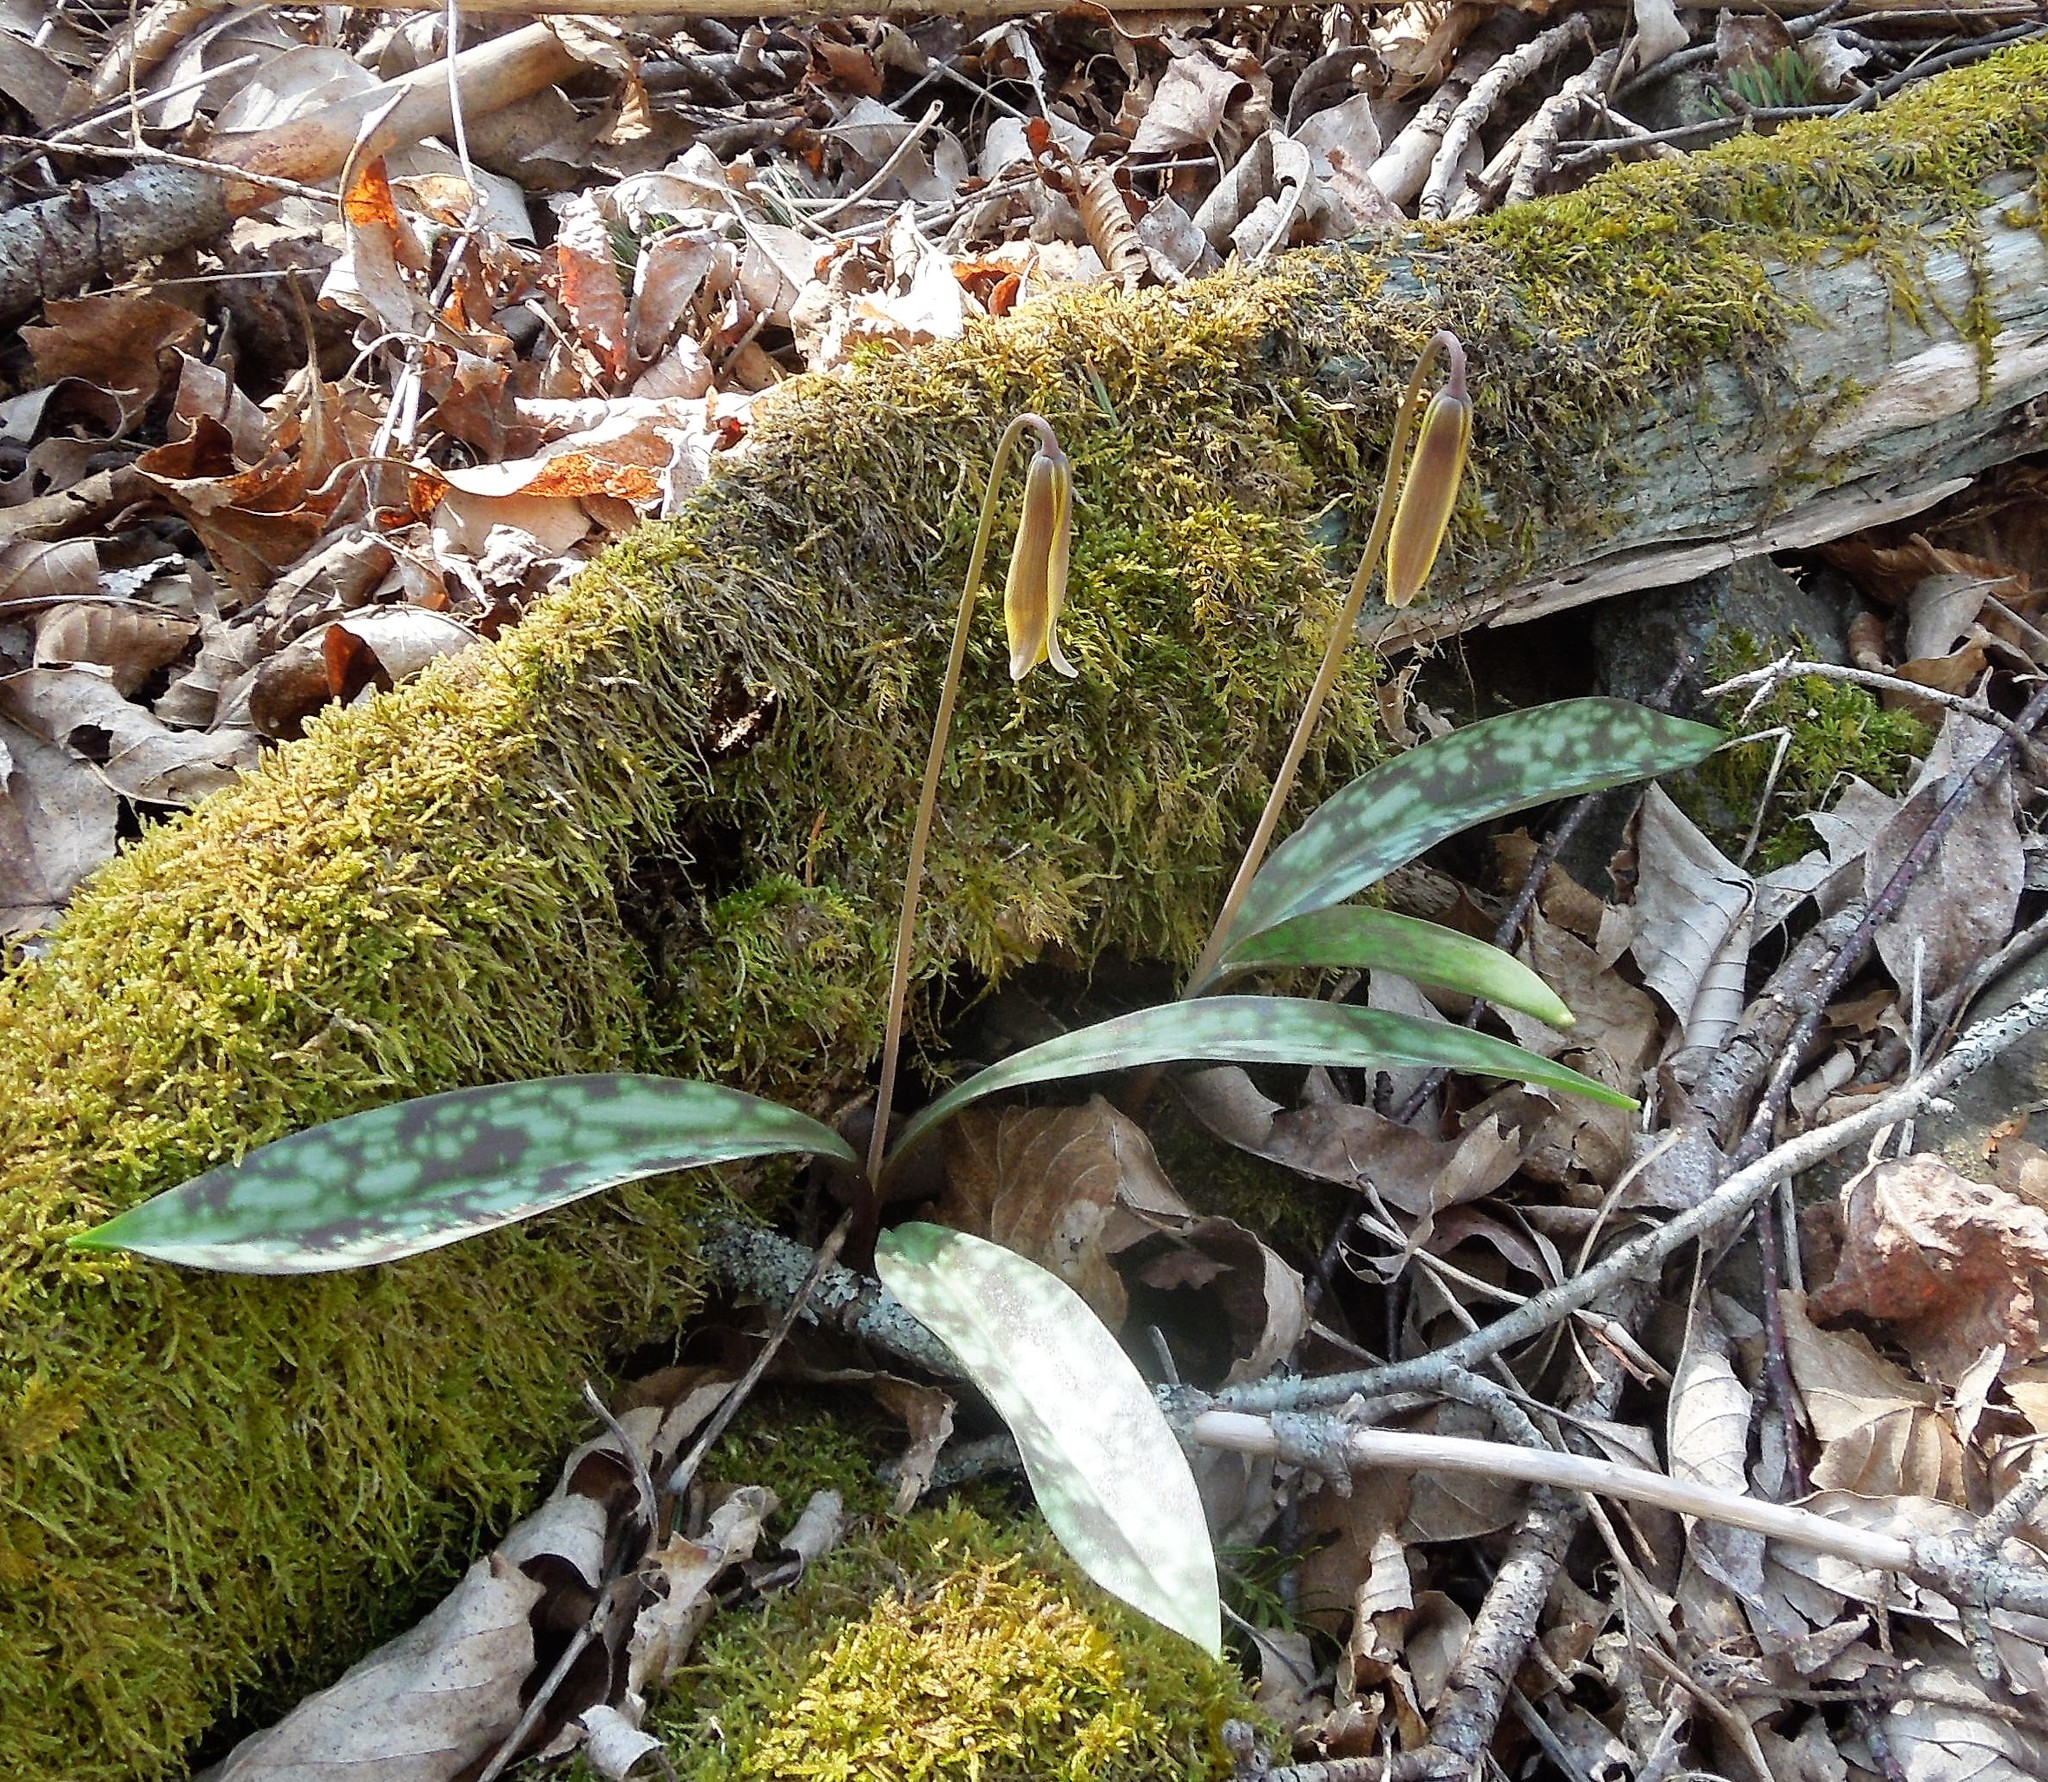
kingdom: Plantae
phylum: Tracheophyta
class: Liliopsida
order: Liliales
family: Liliaceae
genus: Erythronium
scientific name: Erythronium americanum
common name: Yellow adder's-tongue
